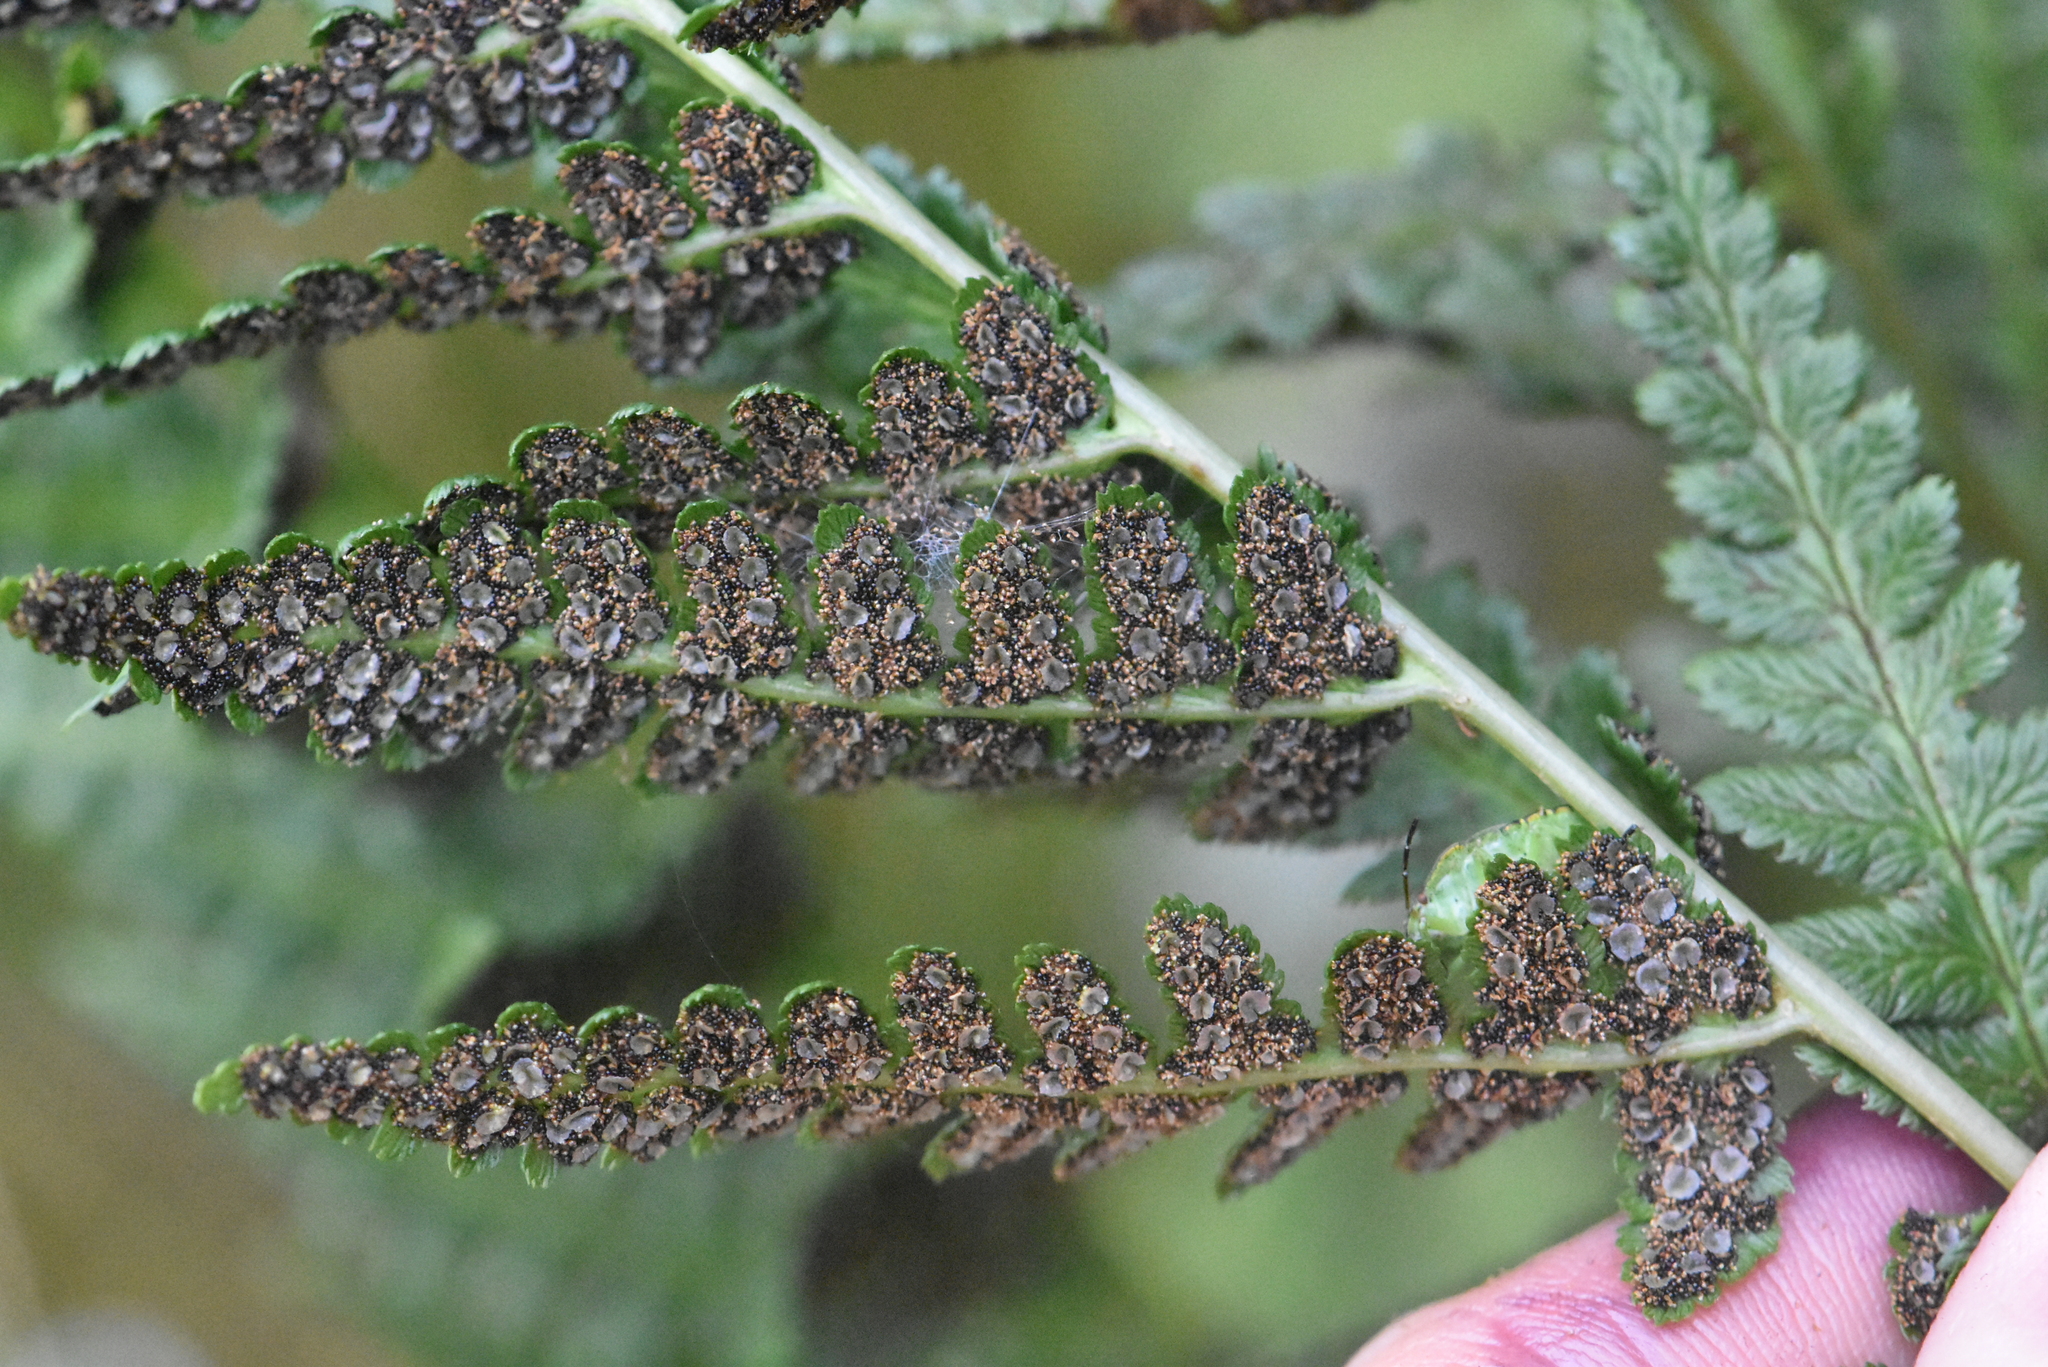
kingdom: Plantae
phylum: Tracheophyta
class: Polypodiopsida
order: Polypodiales
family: Dryopteridaceae
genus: Dryopteris
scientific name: Dryopteris cristata
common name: Crested wood fern
